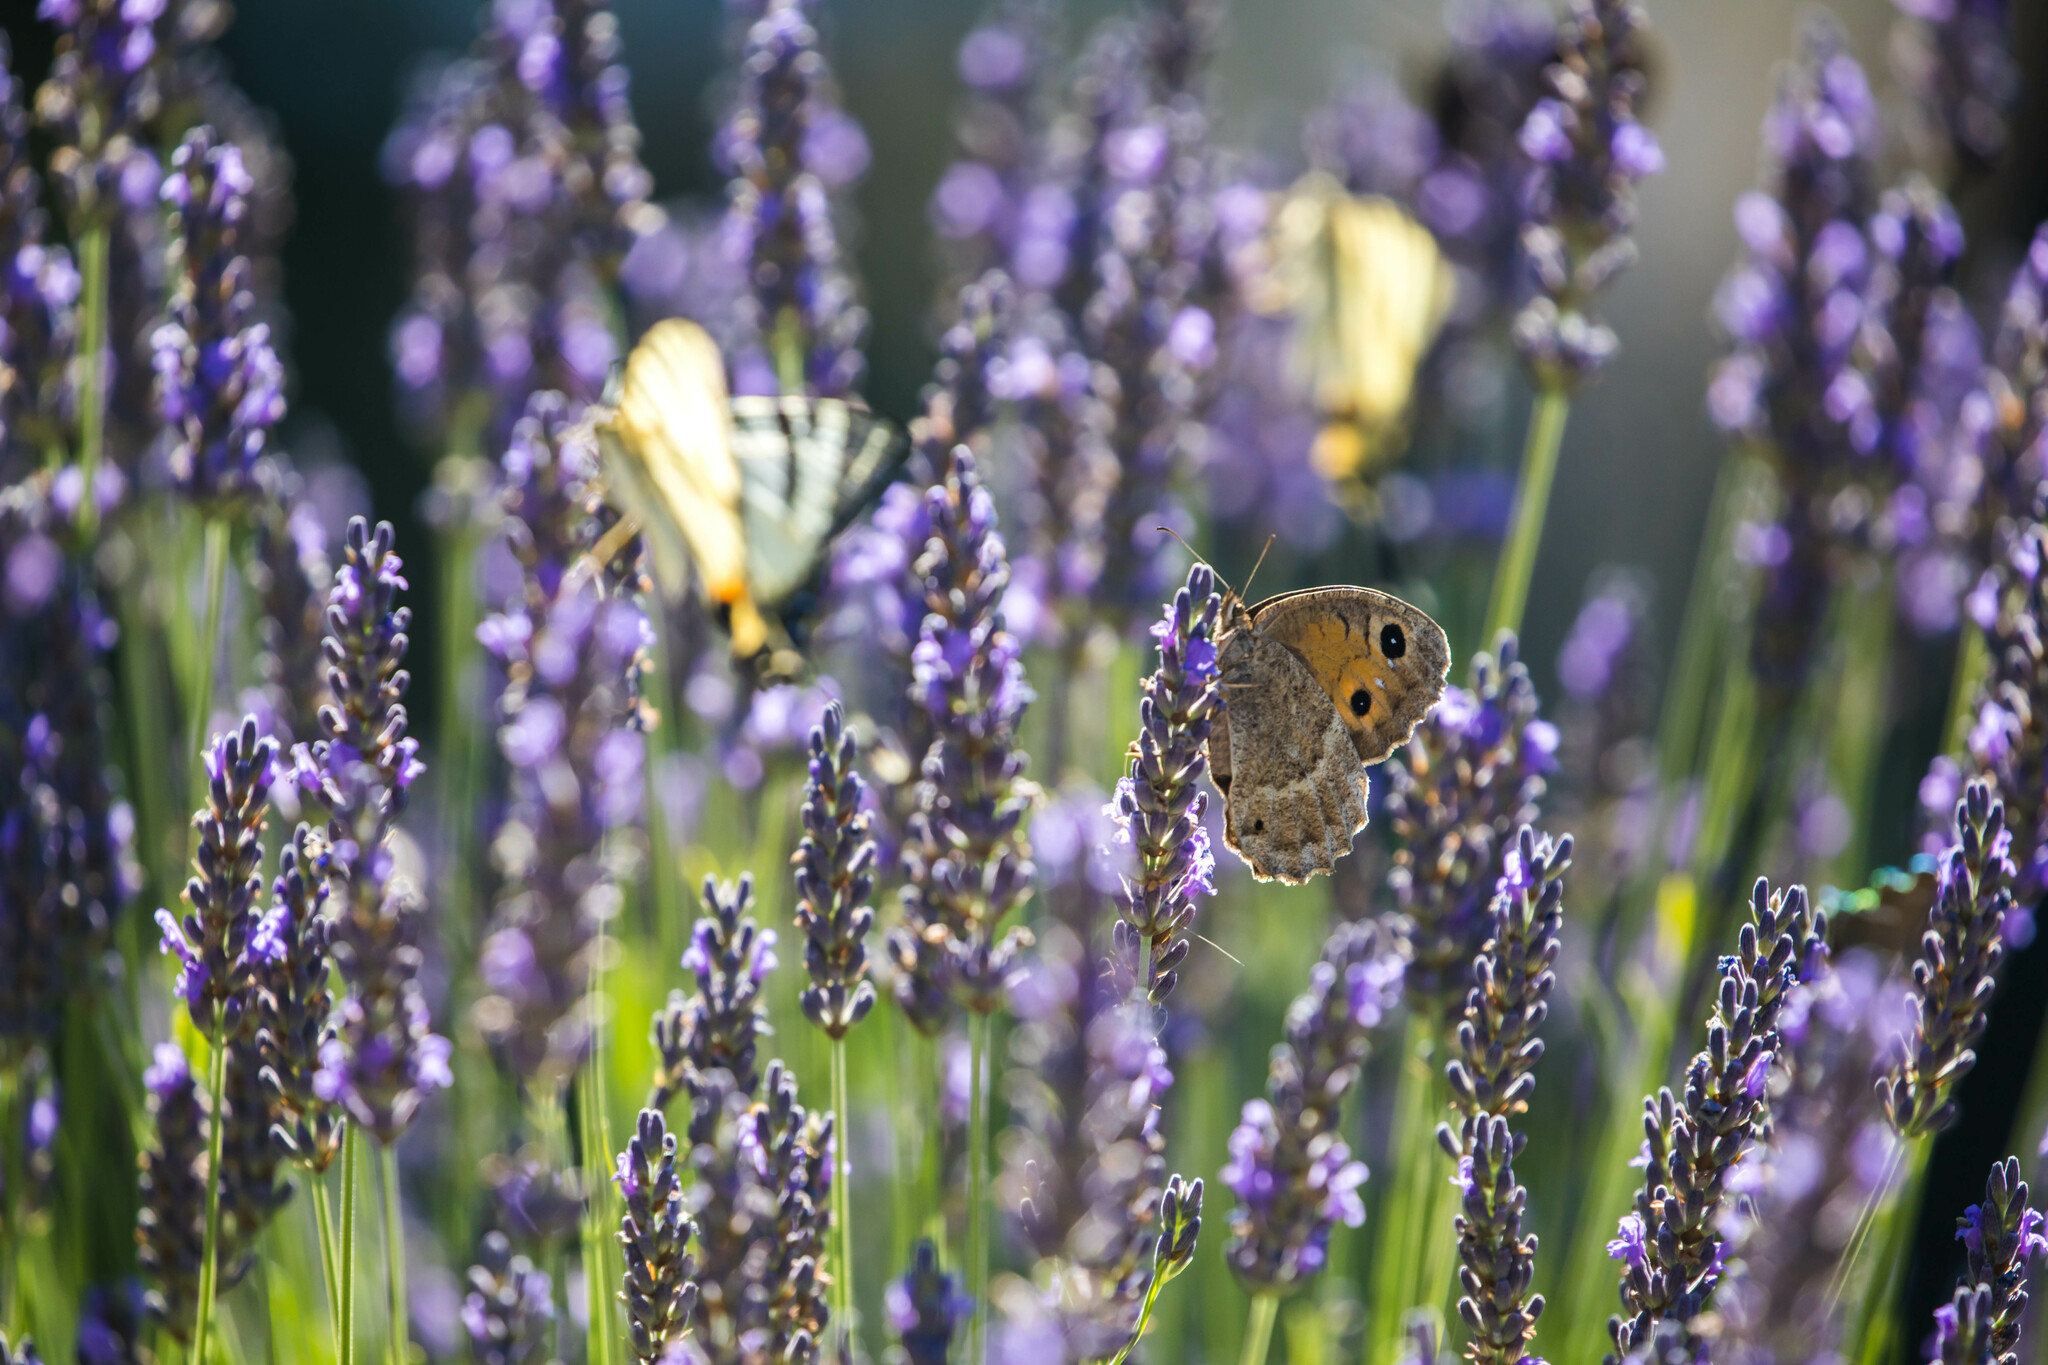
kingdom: Animalia
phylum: Arthropoda
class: Insecta
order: Lepidoptera
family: Nymphalidae
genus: Satyrus
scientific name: Satyrus ferula
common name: Great sooty satyr
